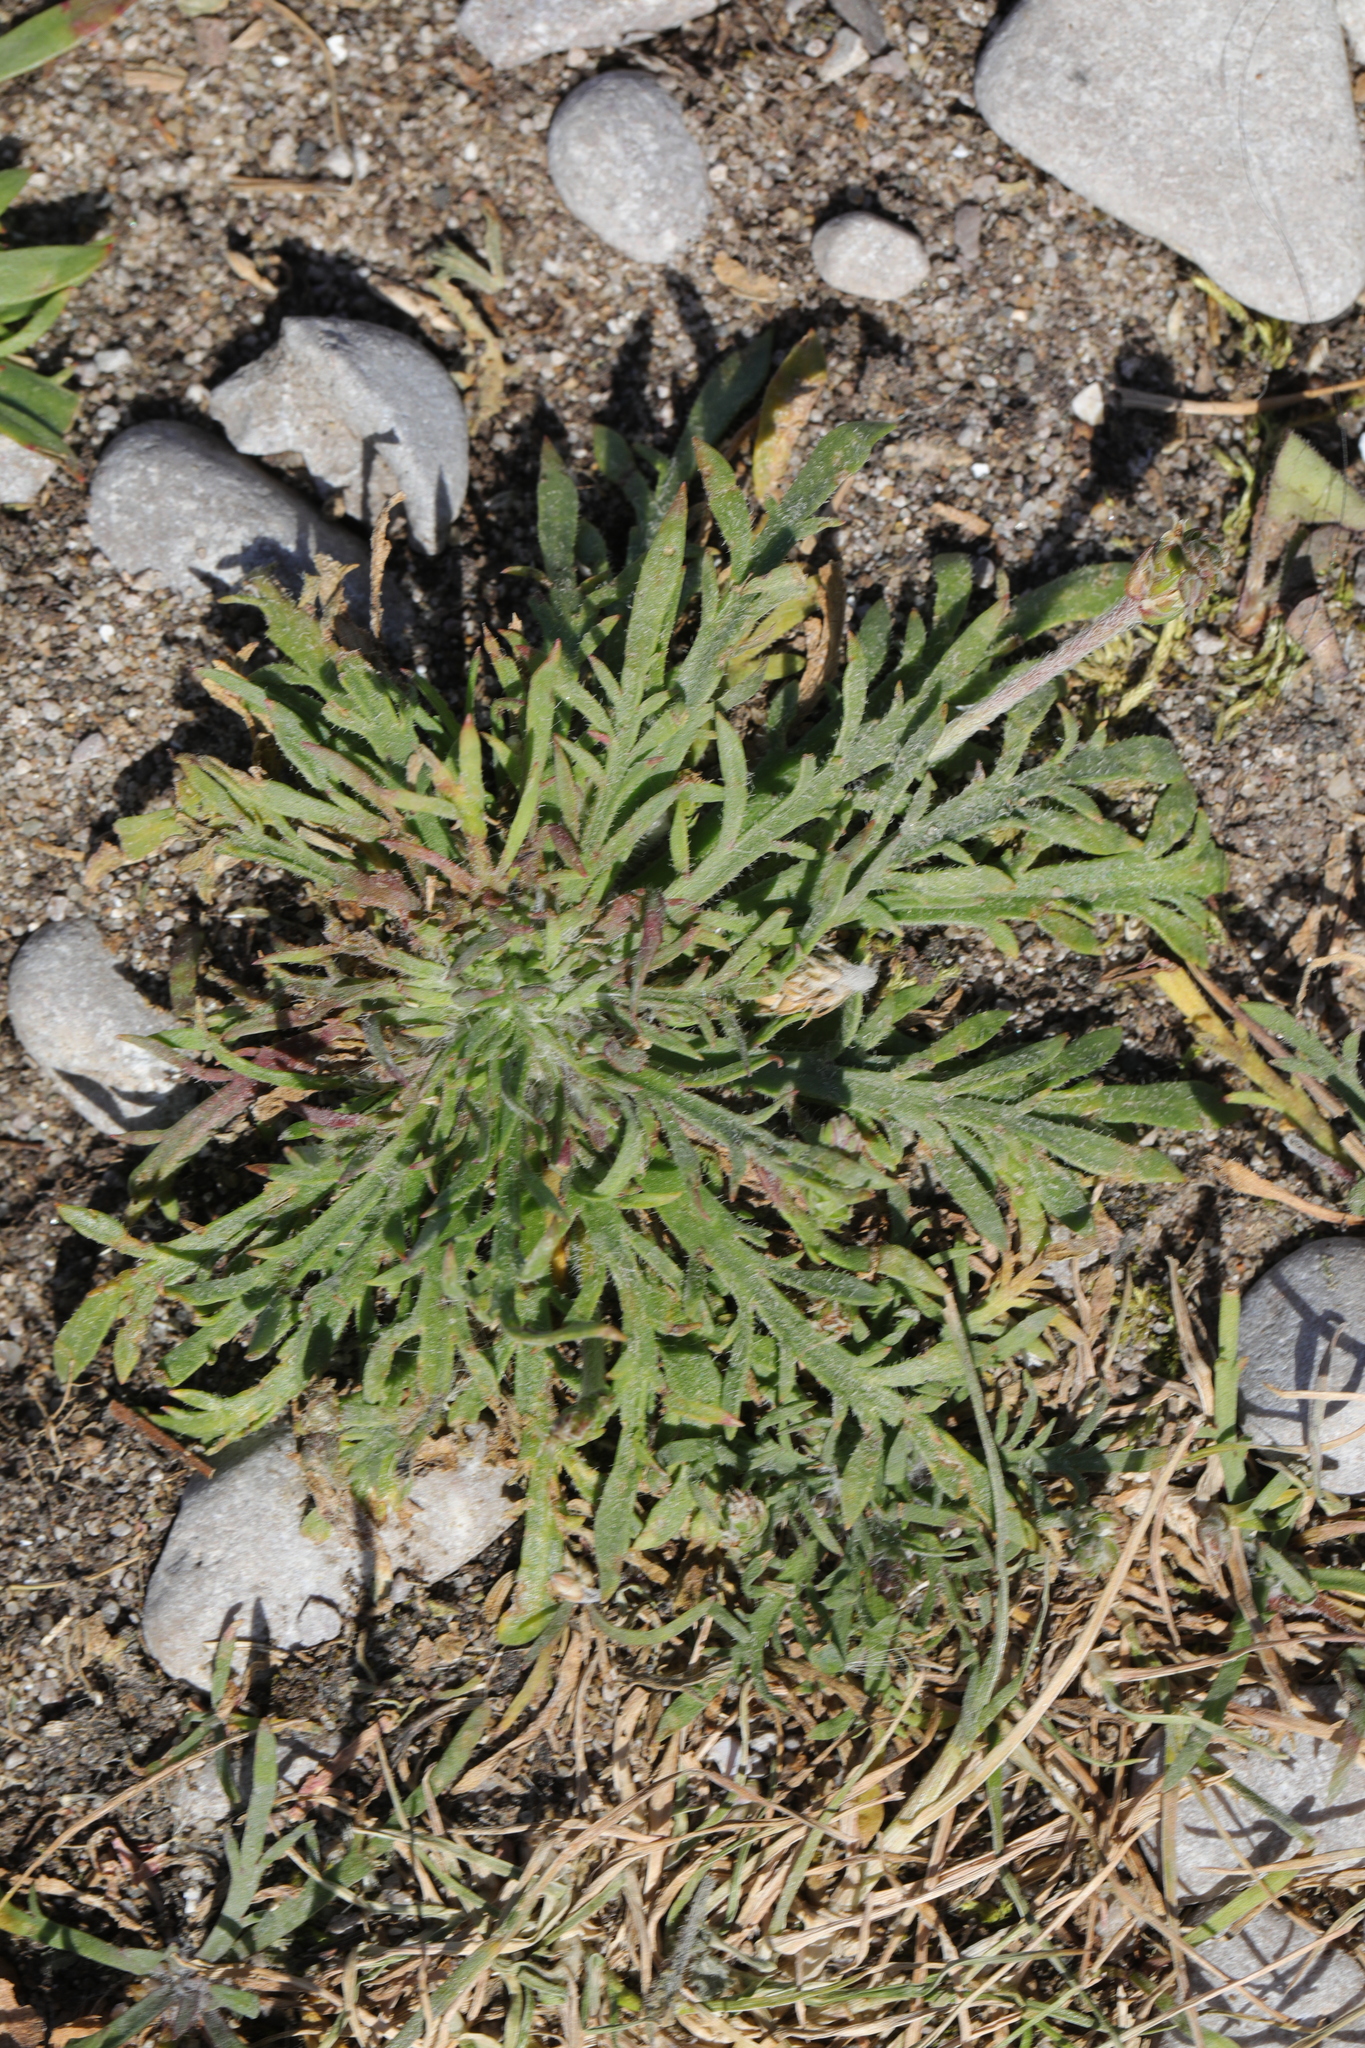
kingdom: Plantae
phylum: Tracheophyta
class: Magnoliopsida
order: Lamiales
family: Plantaginaceae
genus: Plantago
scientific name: Plantago coronopus
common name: Buck's-horn plantain
